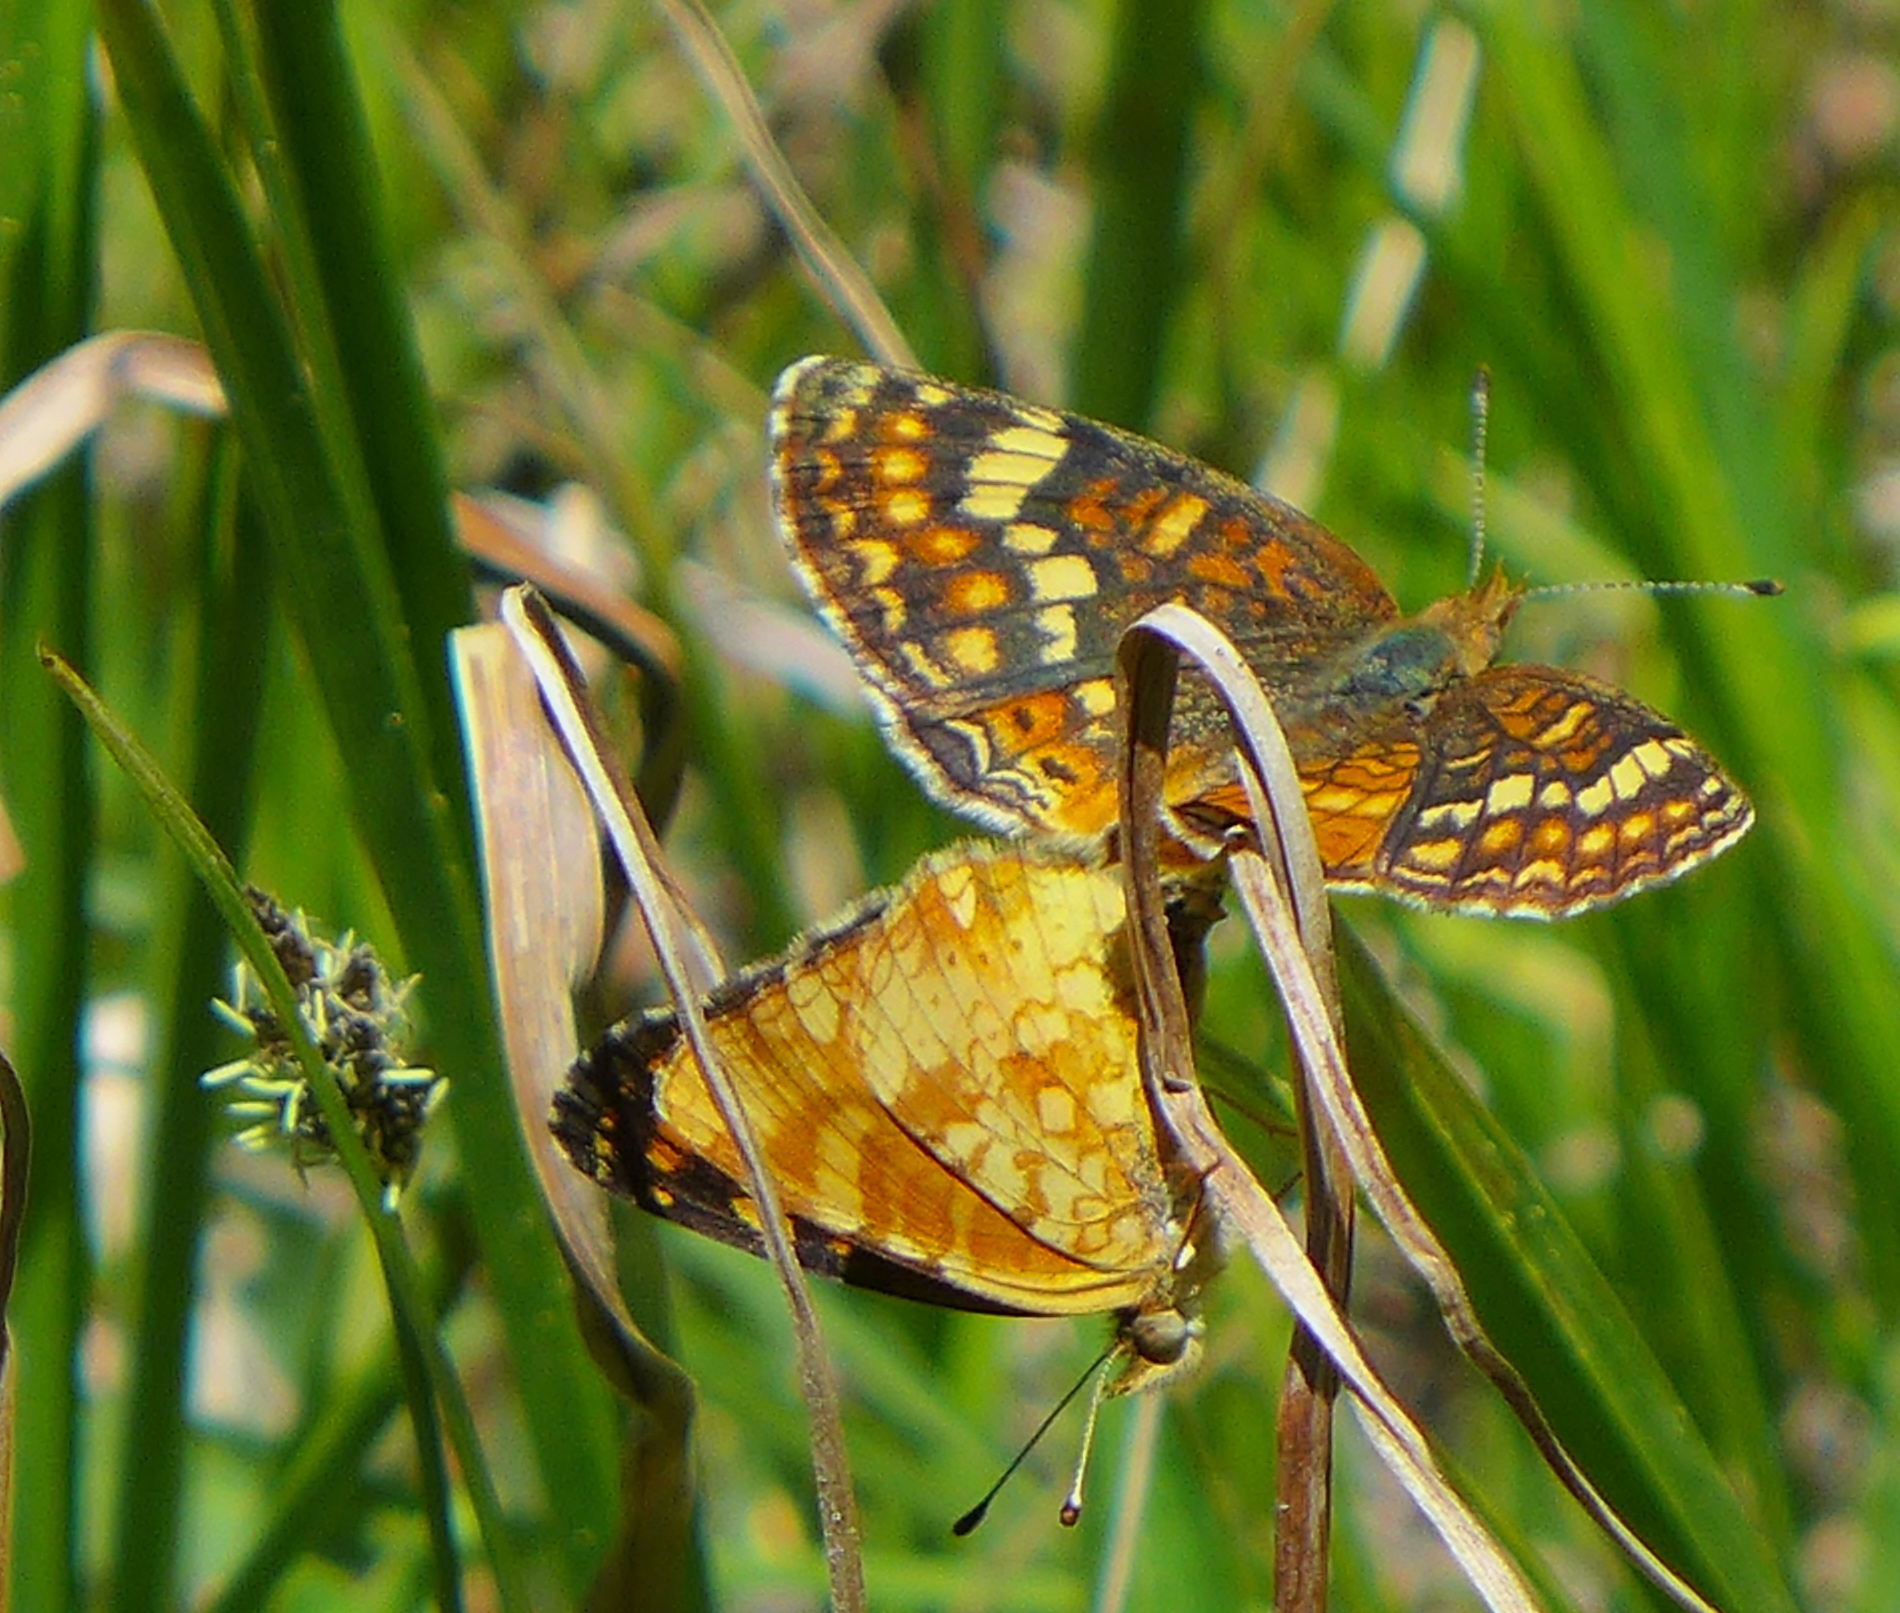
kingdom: Animalia
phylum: Arthropoda
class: Insecta
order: Lepidoptera
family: Nymphalidae
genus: Phyciodes
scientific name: Phyciodes tharos
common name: Pearl crescent
